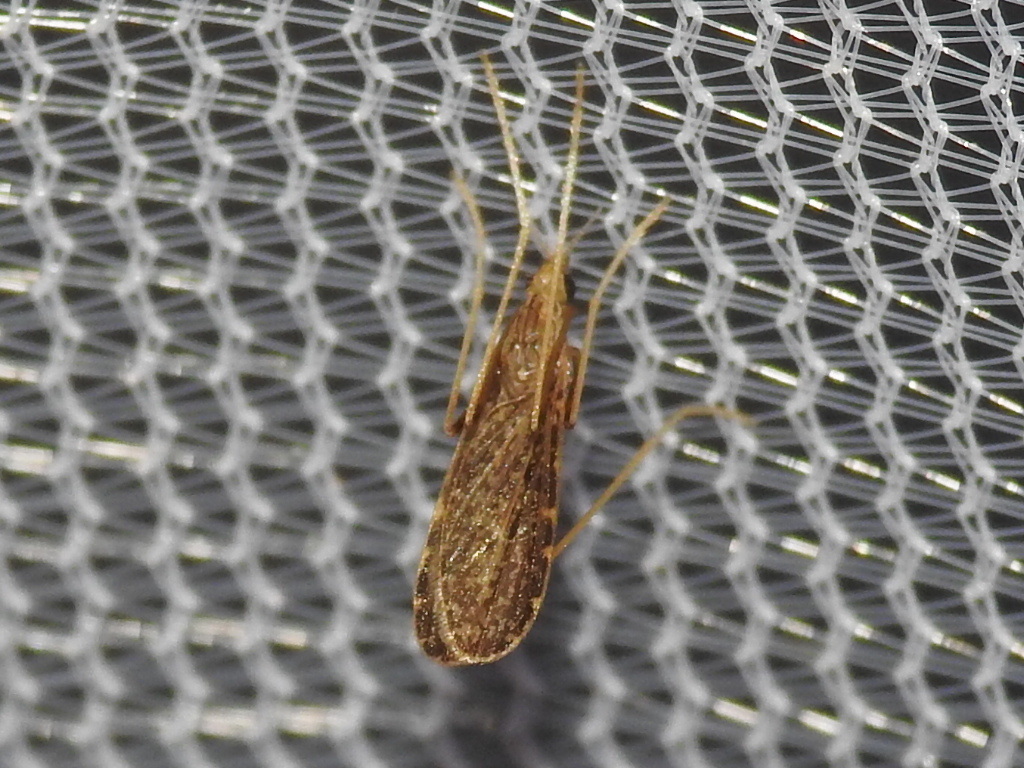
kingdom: Animalia
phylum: Arthropoda
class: Insecta
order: Diptera
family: Limoniidae
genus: Erioptera
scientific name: Erioptera tantilla
